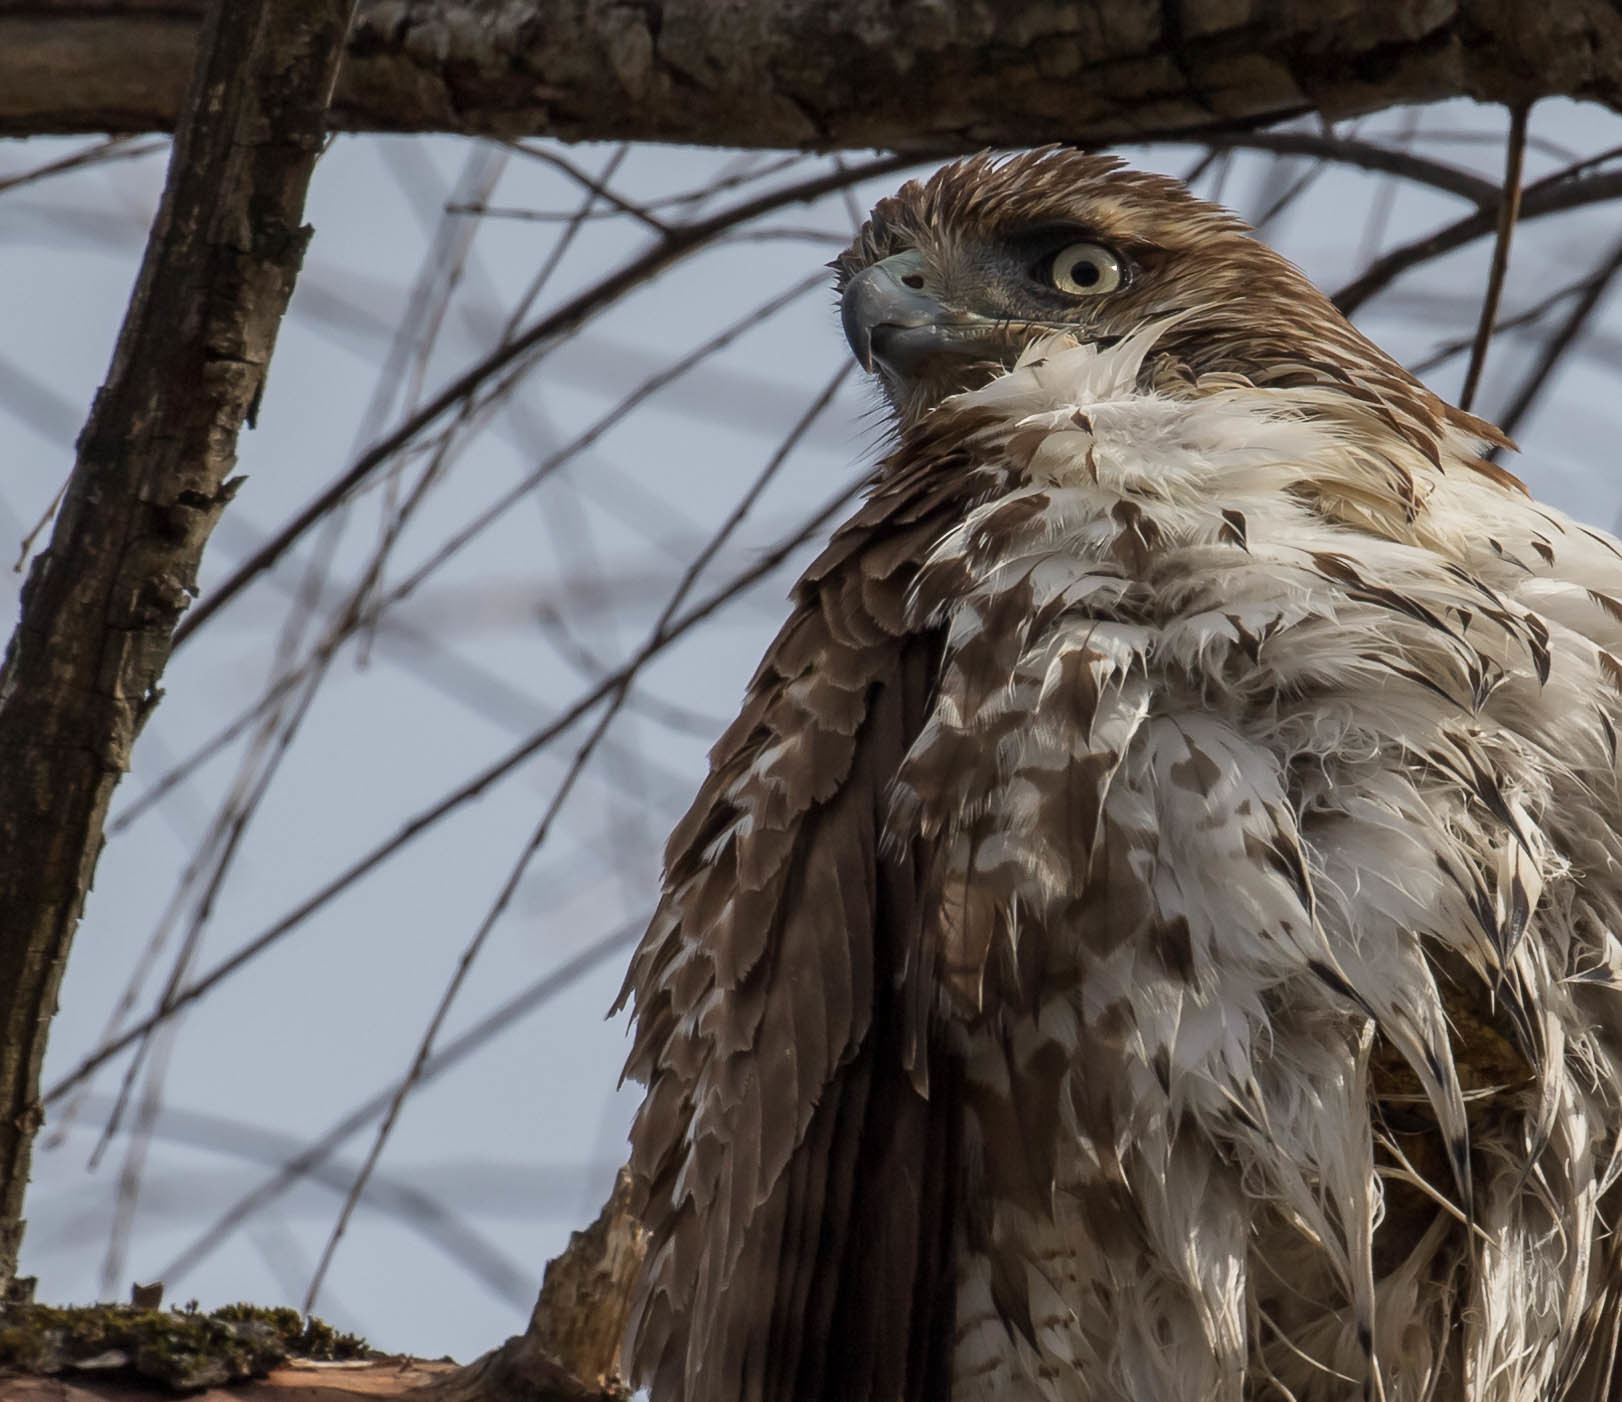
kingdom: Animalia
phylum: Chordata
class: Aves
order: Accipitriformes
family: Accipitridae
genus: Buteo
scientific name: Buteo jamaicensis
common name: Red-tailed hawk
